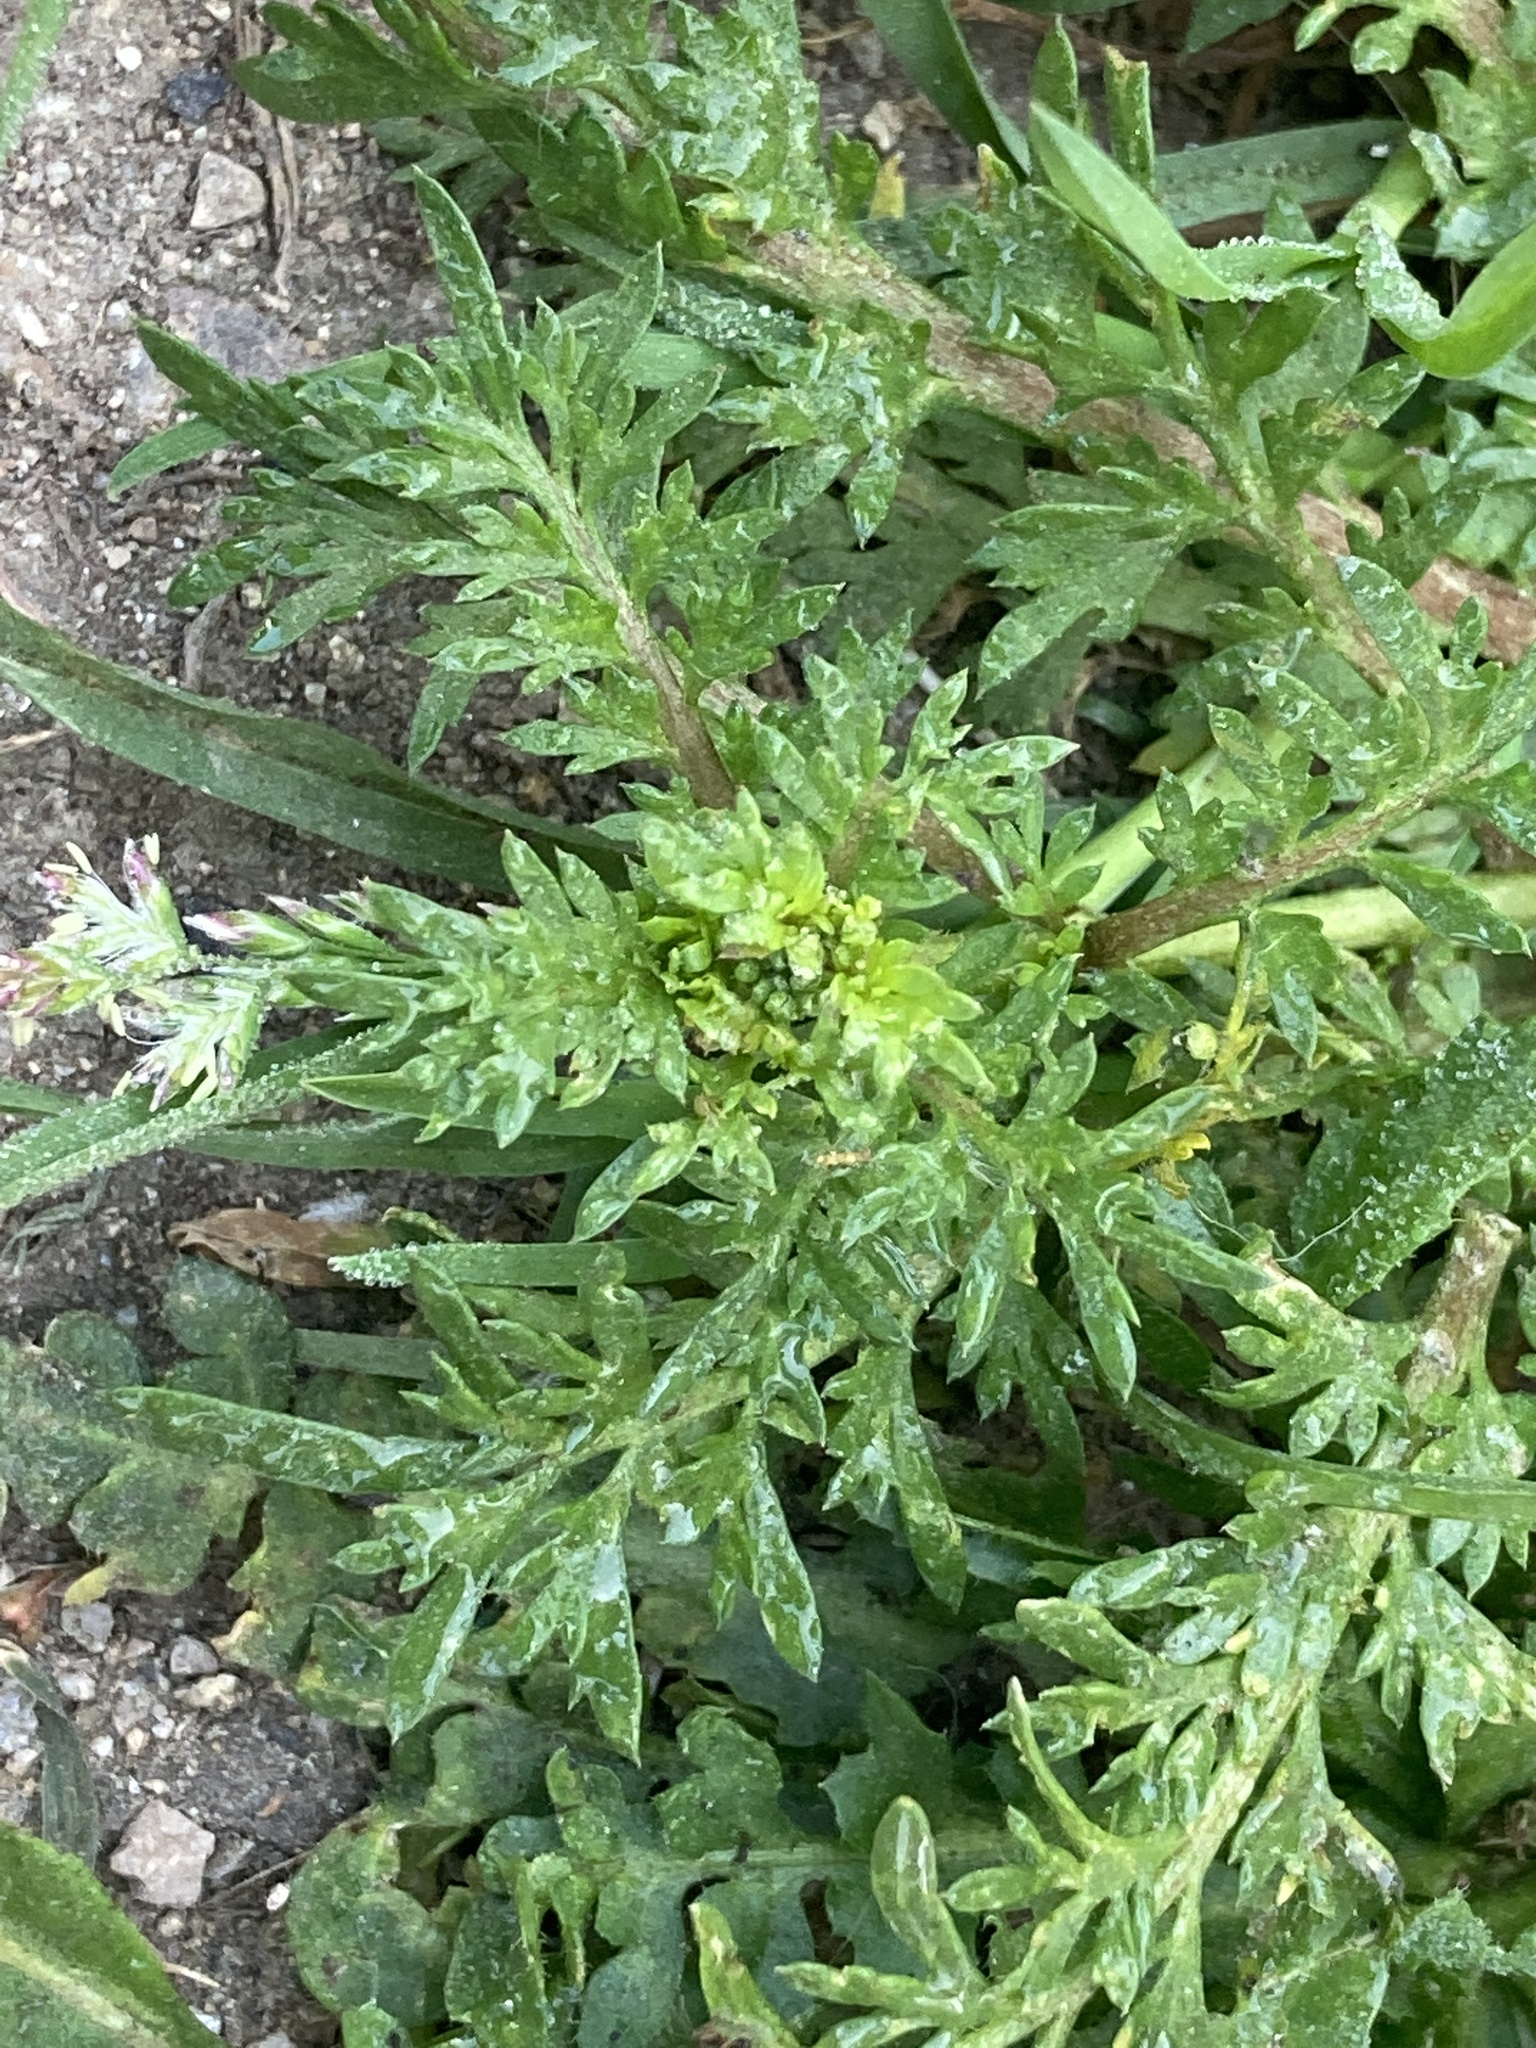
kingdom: Plantae
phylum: Tracheophyta
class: Magnoliopsida
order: Brassicales
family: Brassicaceae
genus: Lepidium
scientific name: Lepidium didymum
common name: Lesser swinecress
